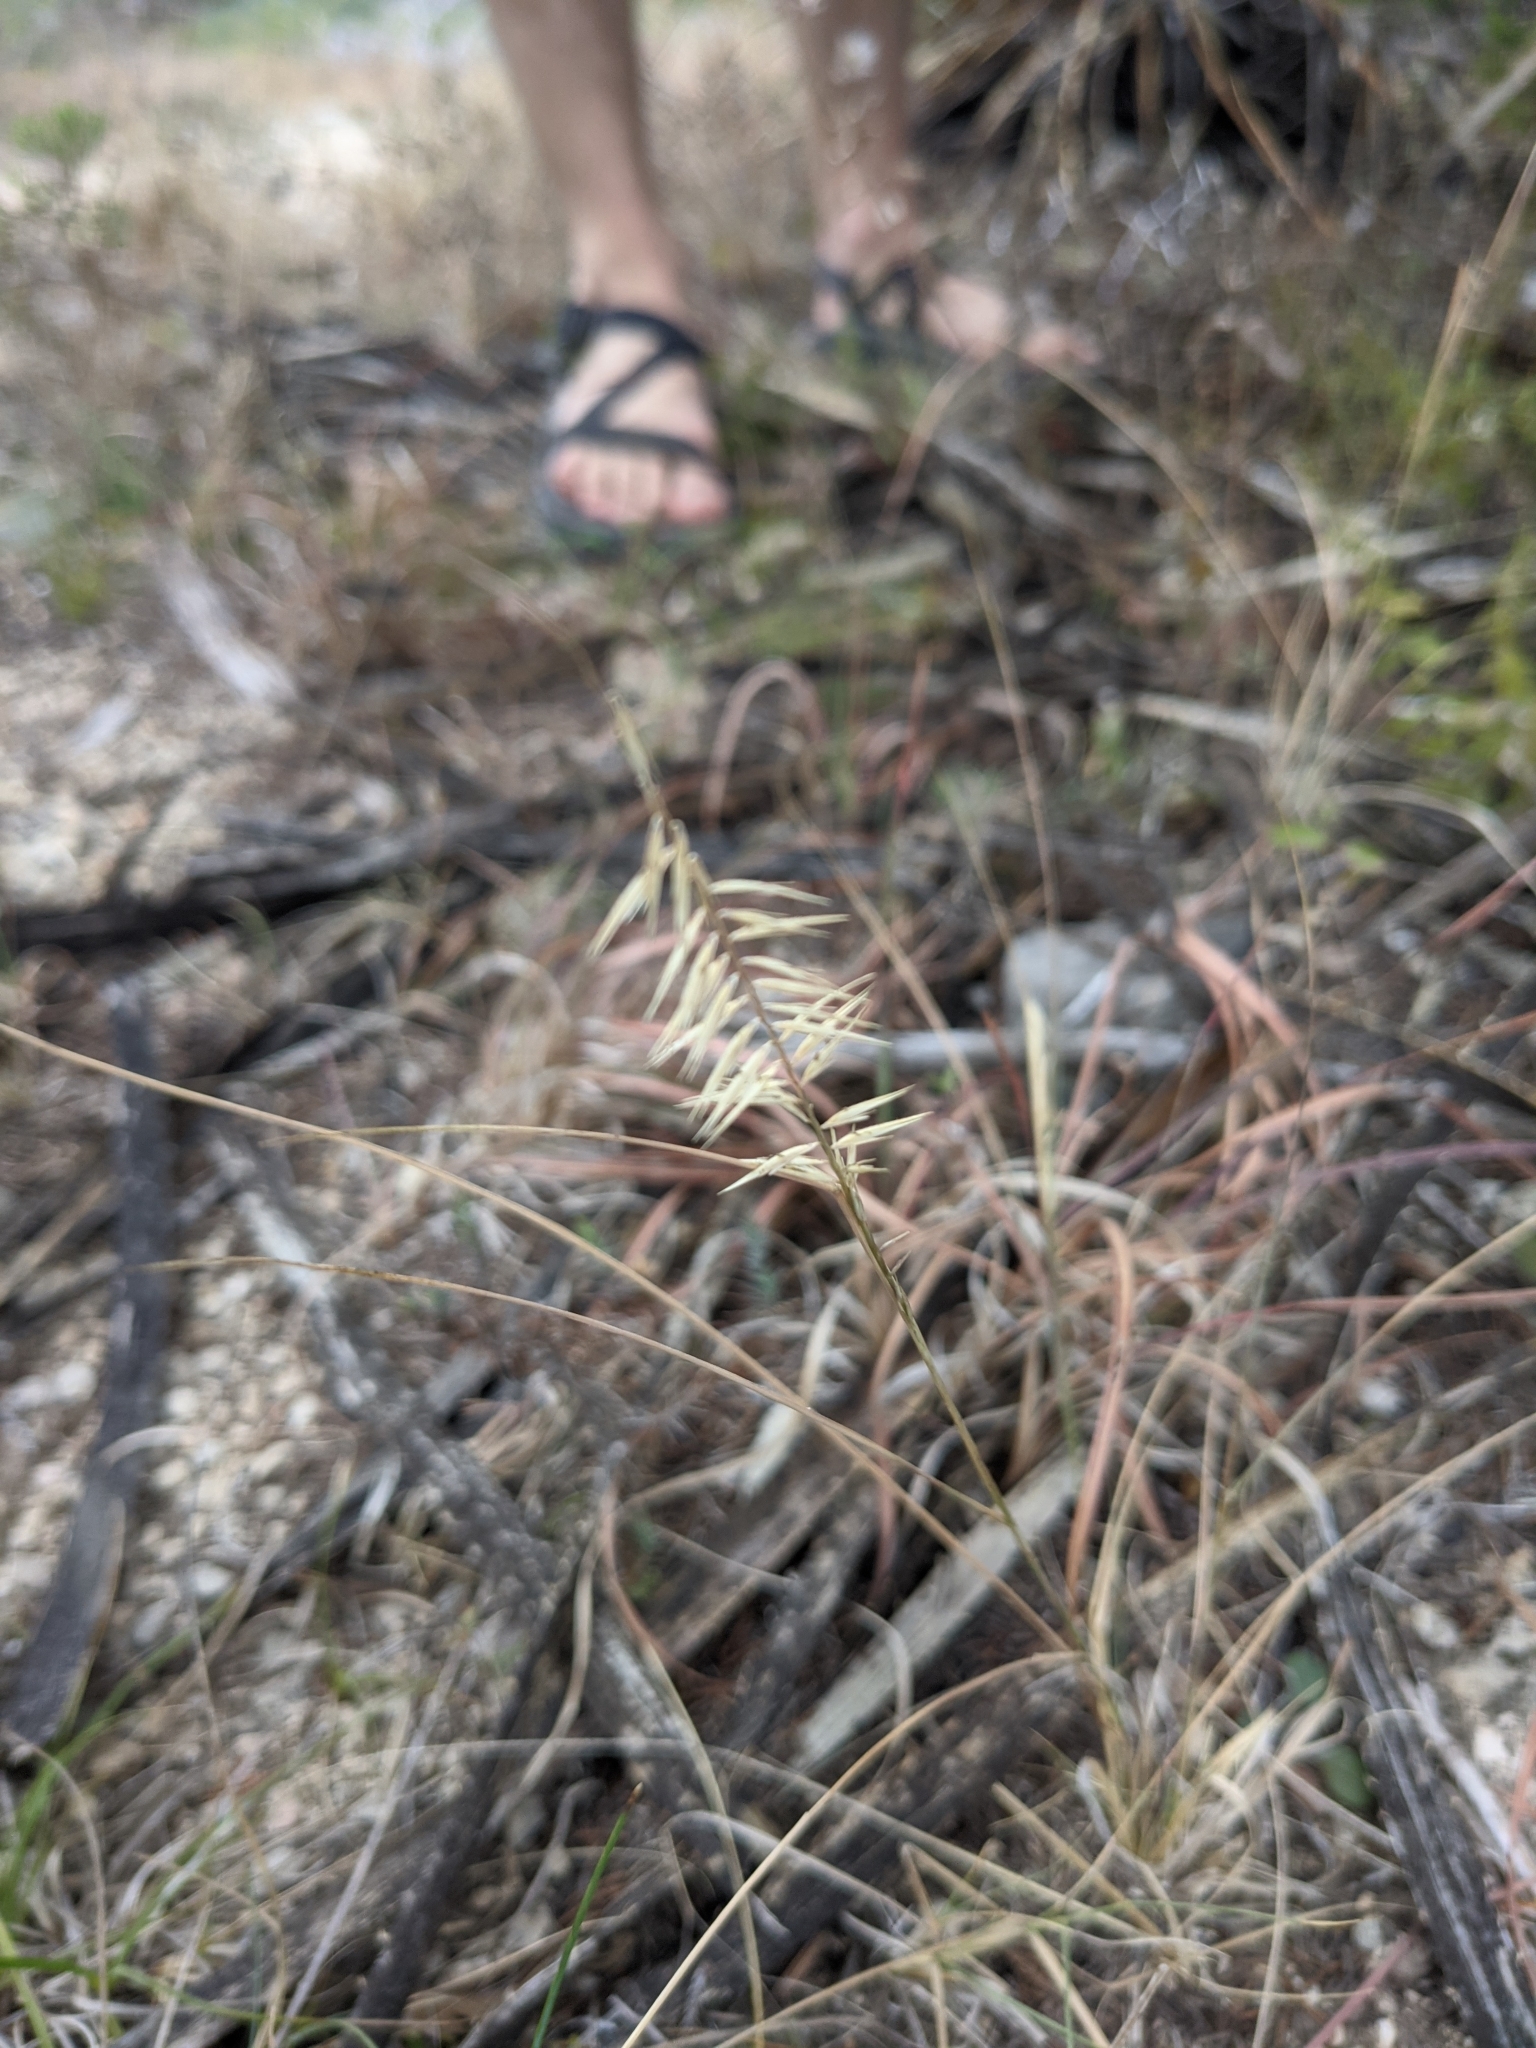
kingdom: Plantae
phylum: Tracheophyta
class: Liliopsida
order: Poales
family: Poaceae
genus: Bouteloua
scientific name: Bouteloua uniflora
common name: Neally's grama
